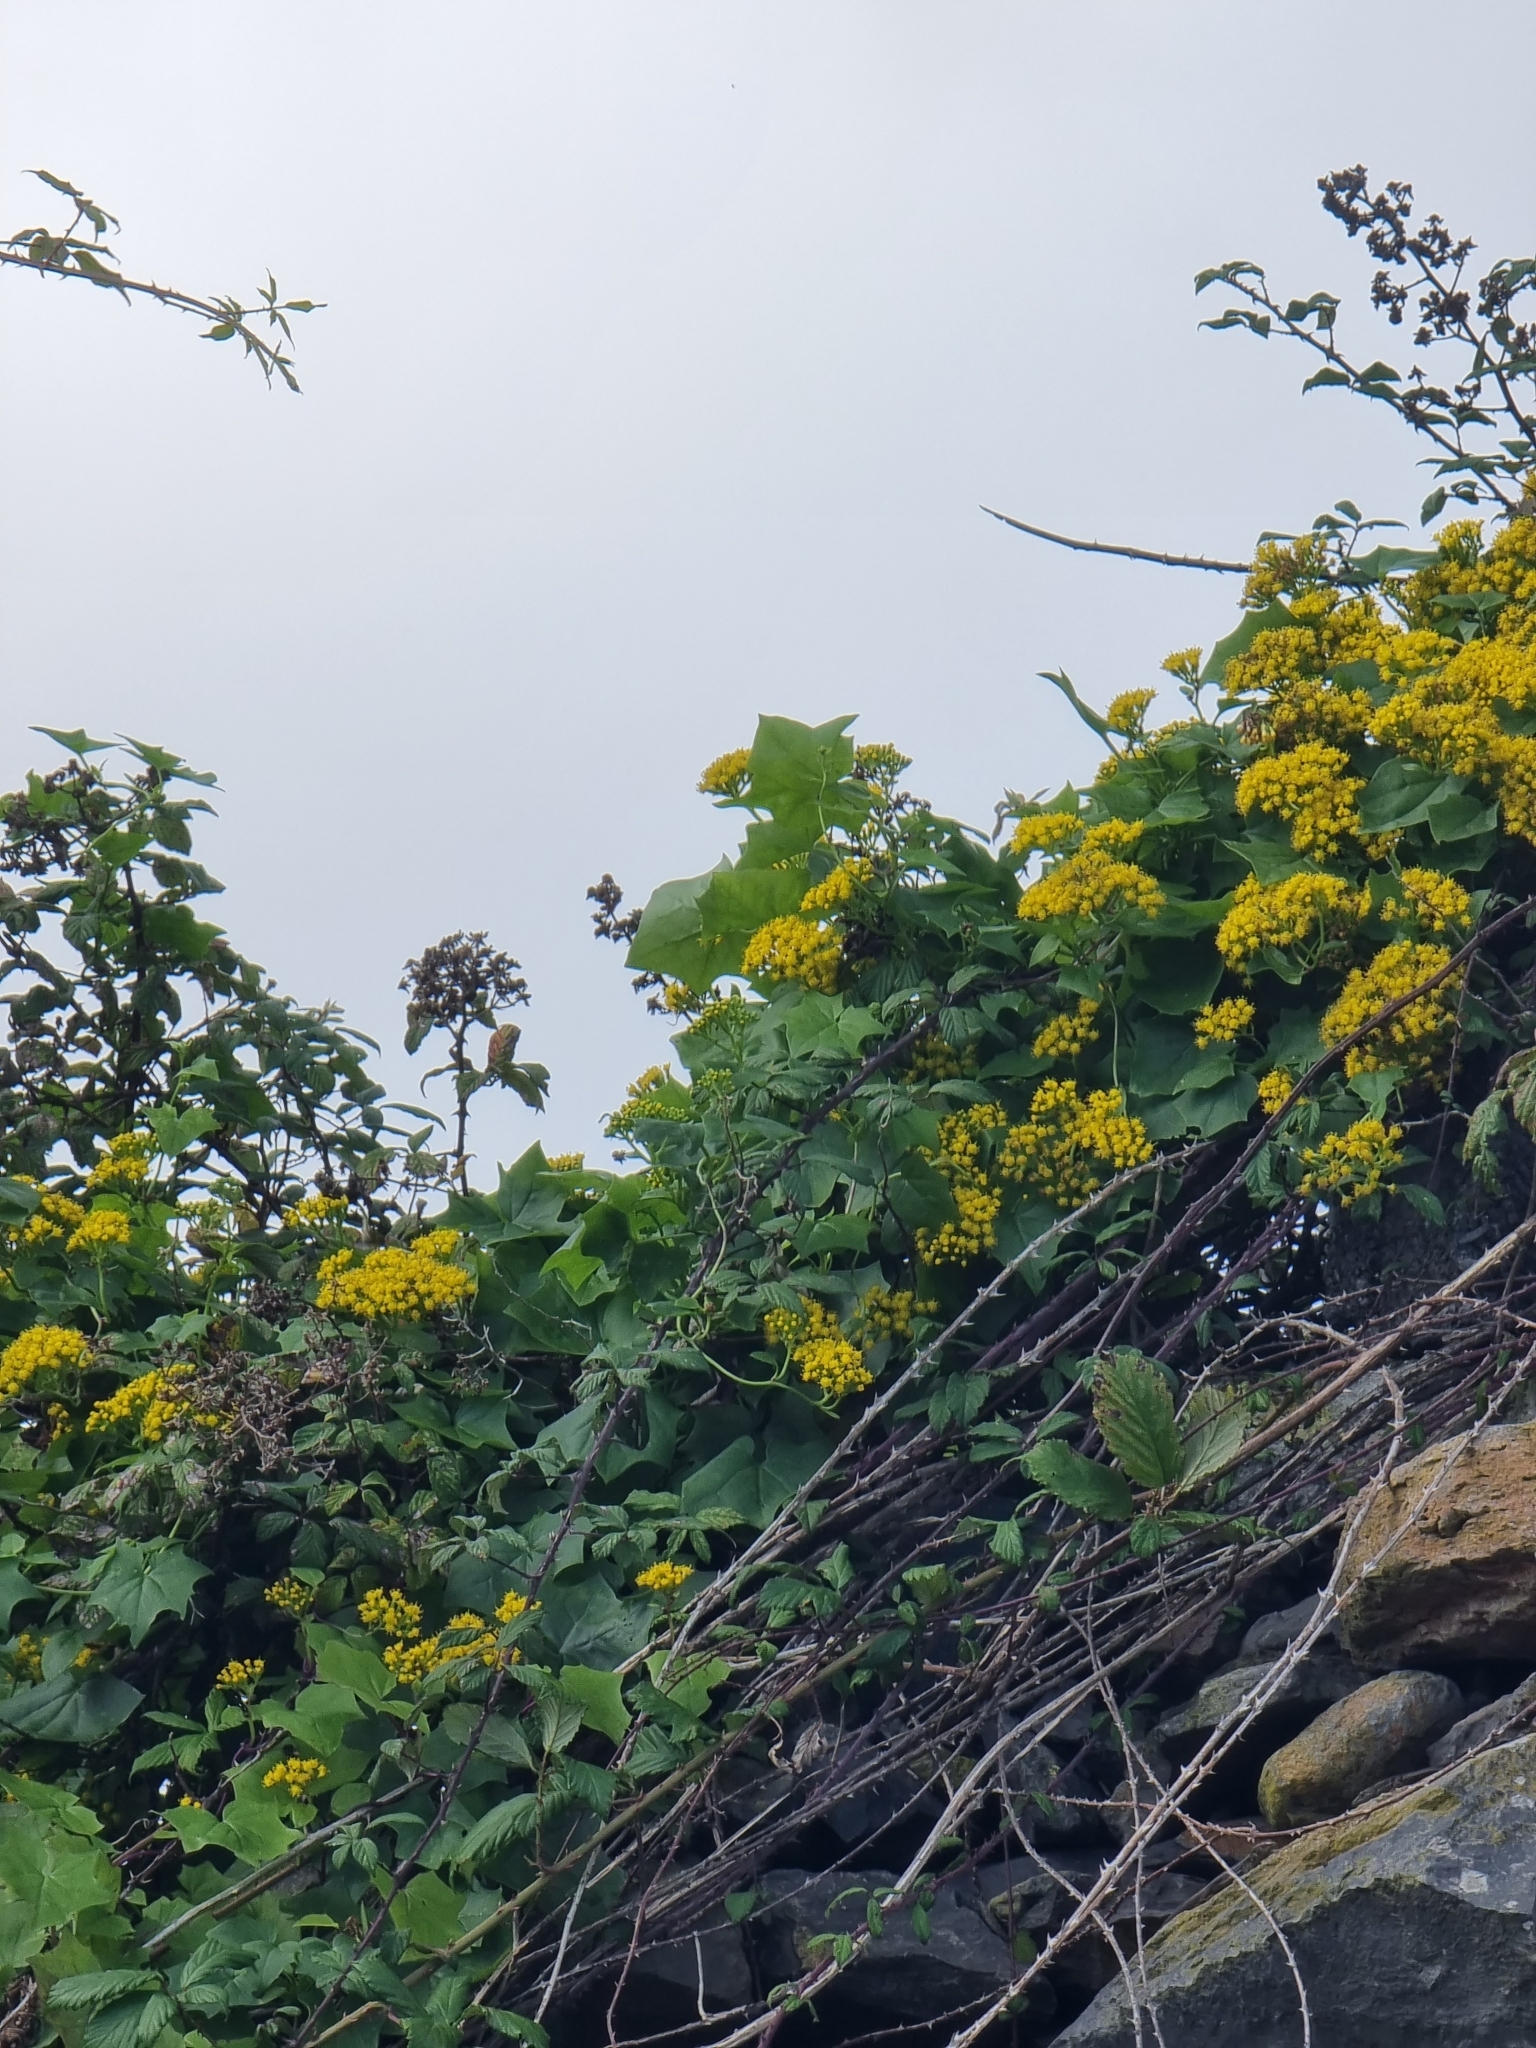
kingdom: Plantae
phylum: Tracheophyta
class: Magnoliopsida
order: Asterales
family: Asteraceae
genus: Delairea
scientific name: Delairea odorata
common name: Cape-ivy
